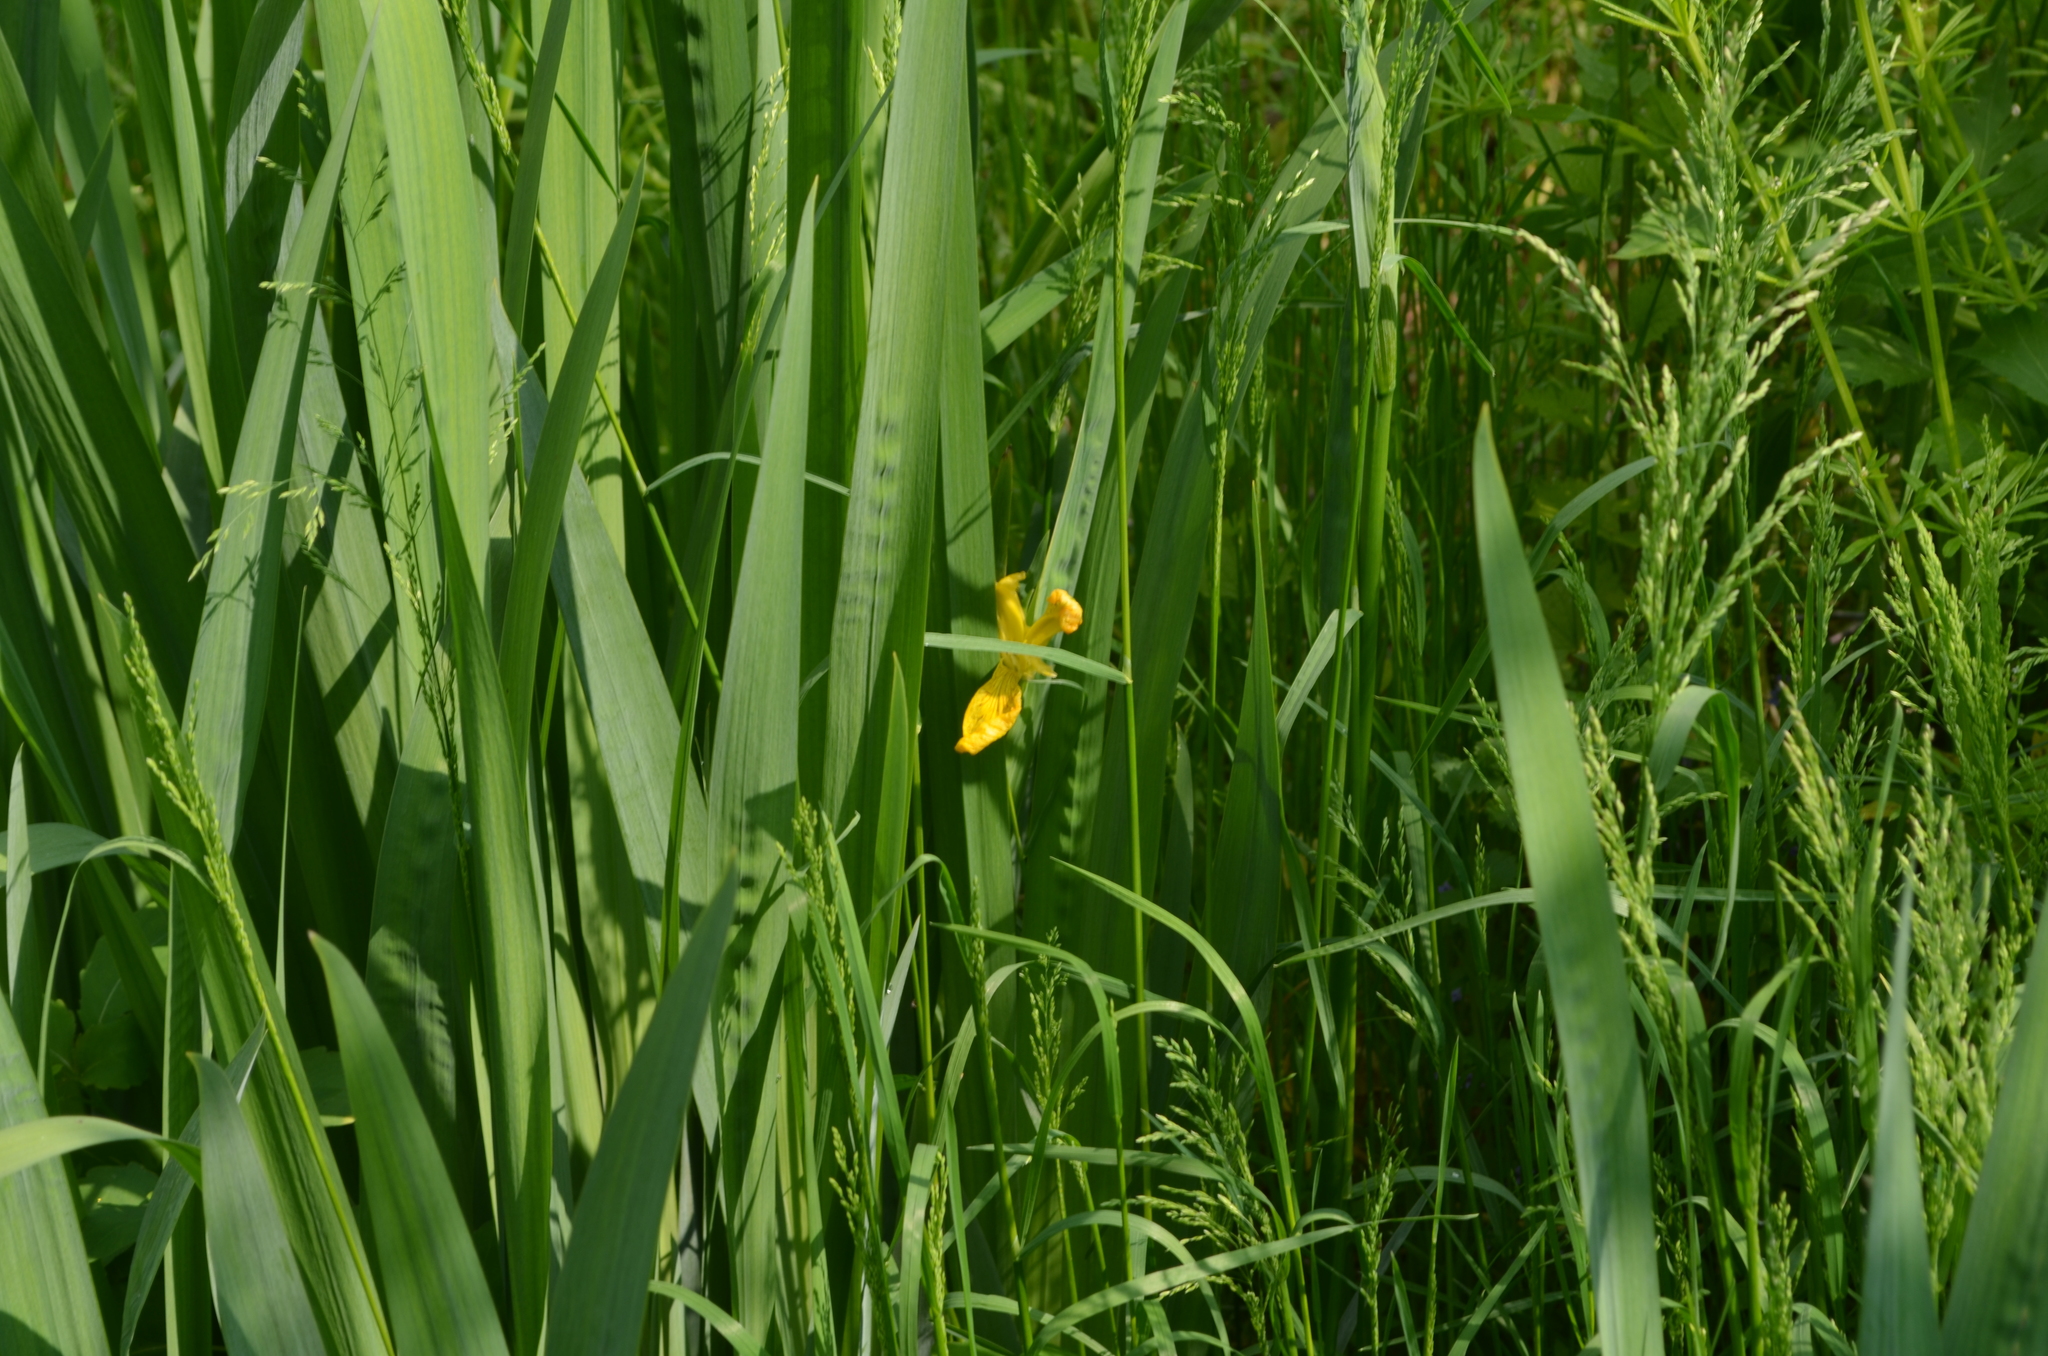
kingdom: Plantae
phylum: Tracheophyta
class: Liliopsida
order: Asparagales
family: Iridaceae
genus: Iris
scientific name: Iris pseudacorus
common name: Yellow flag
